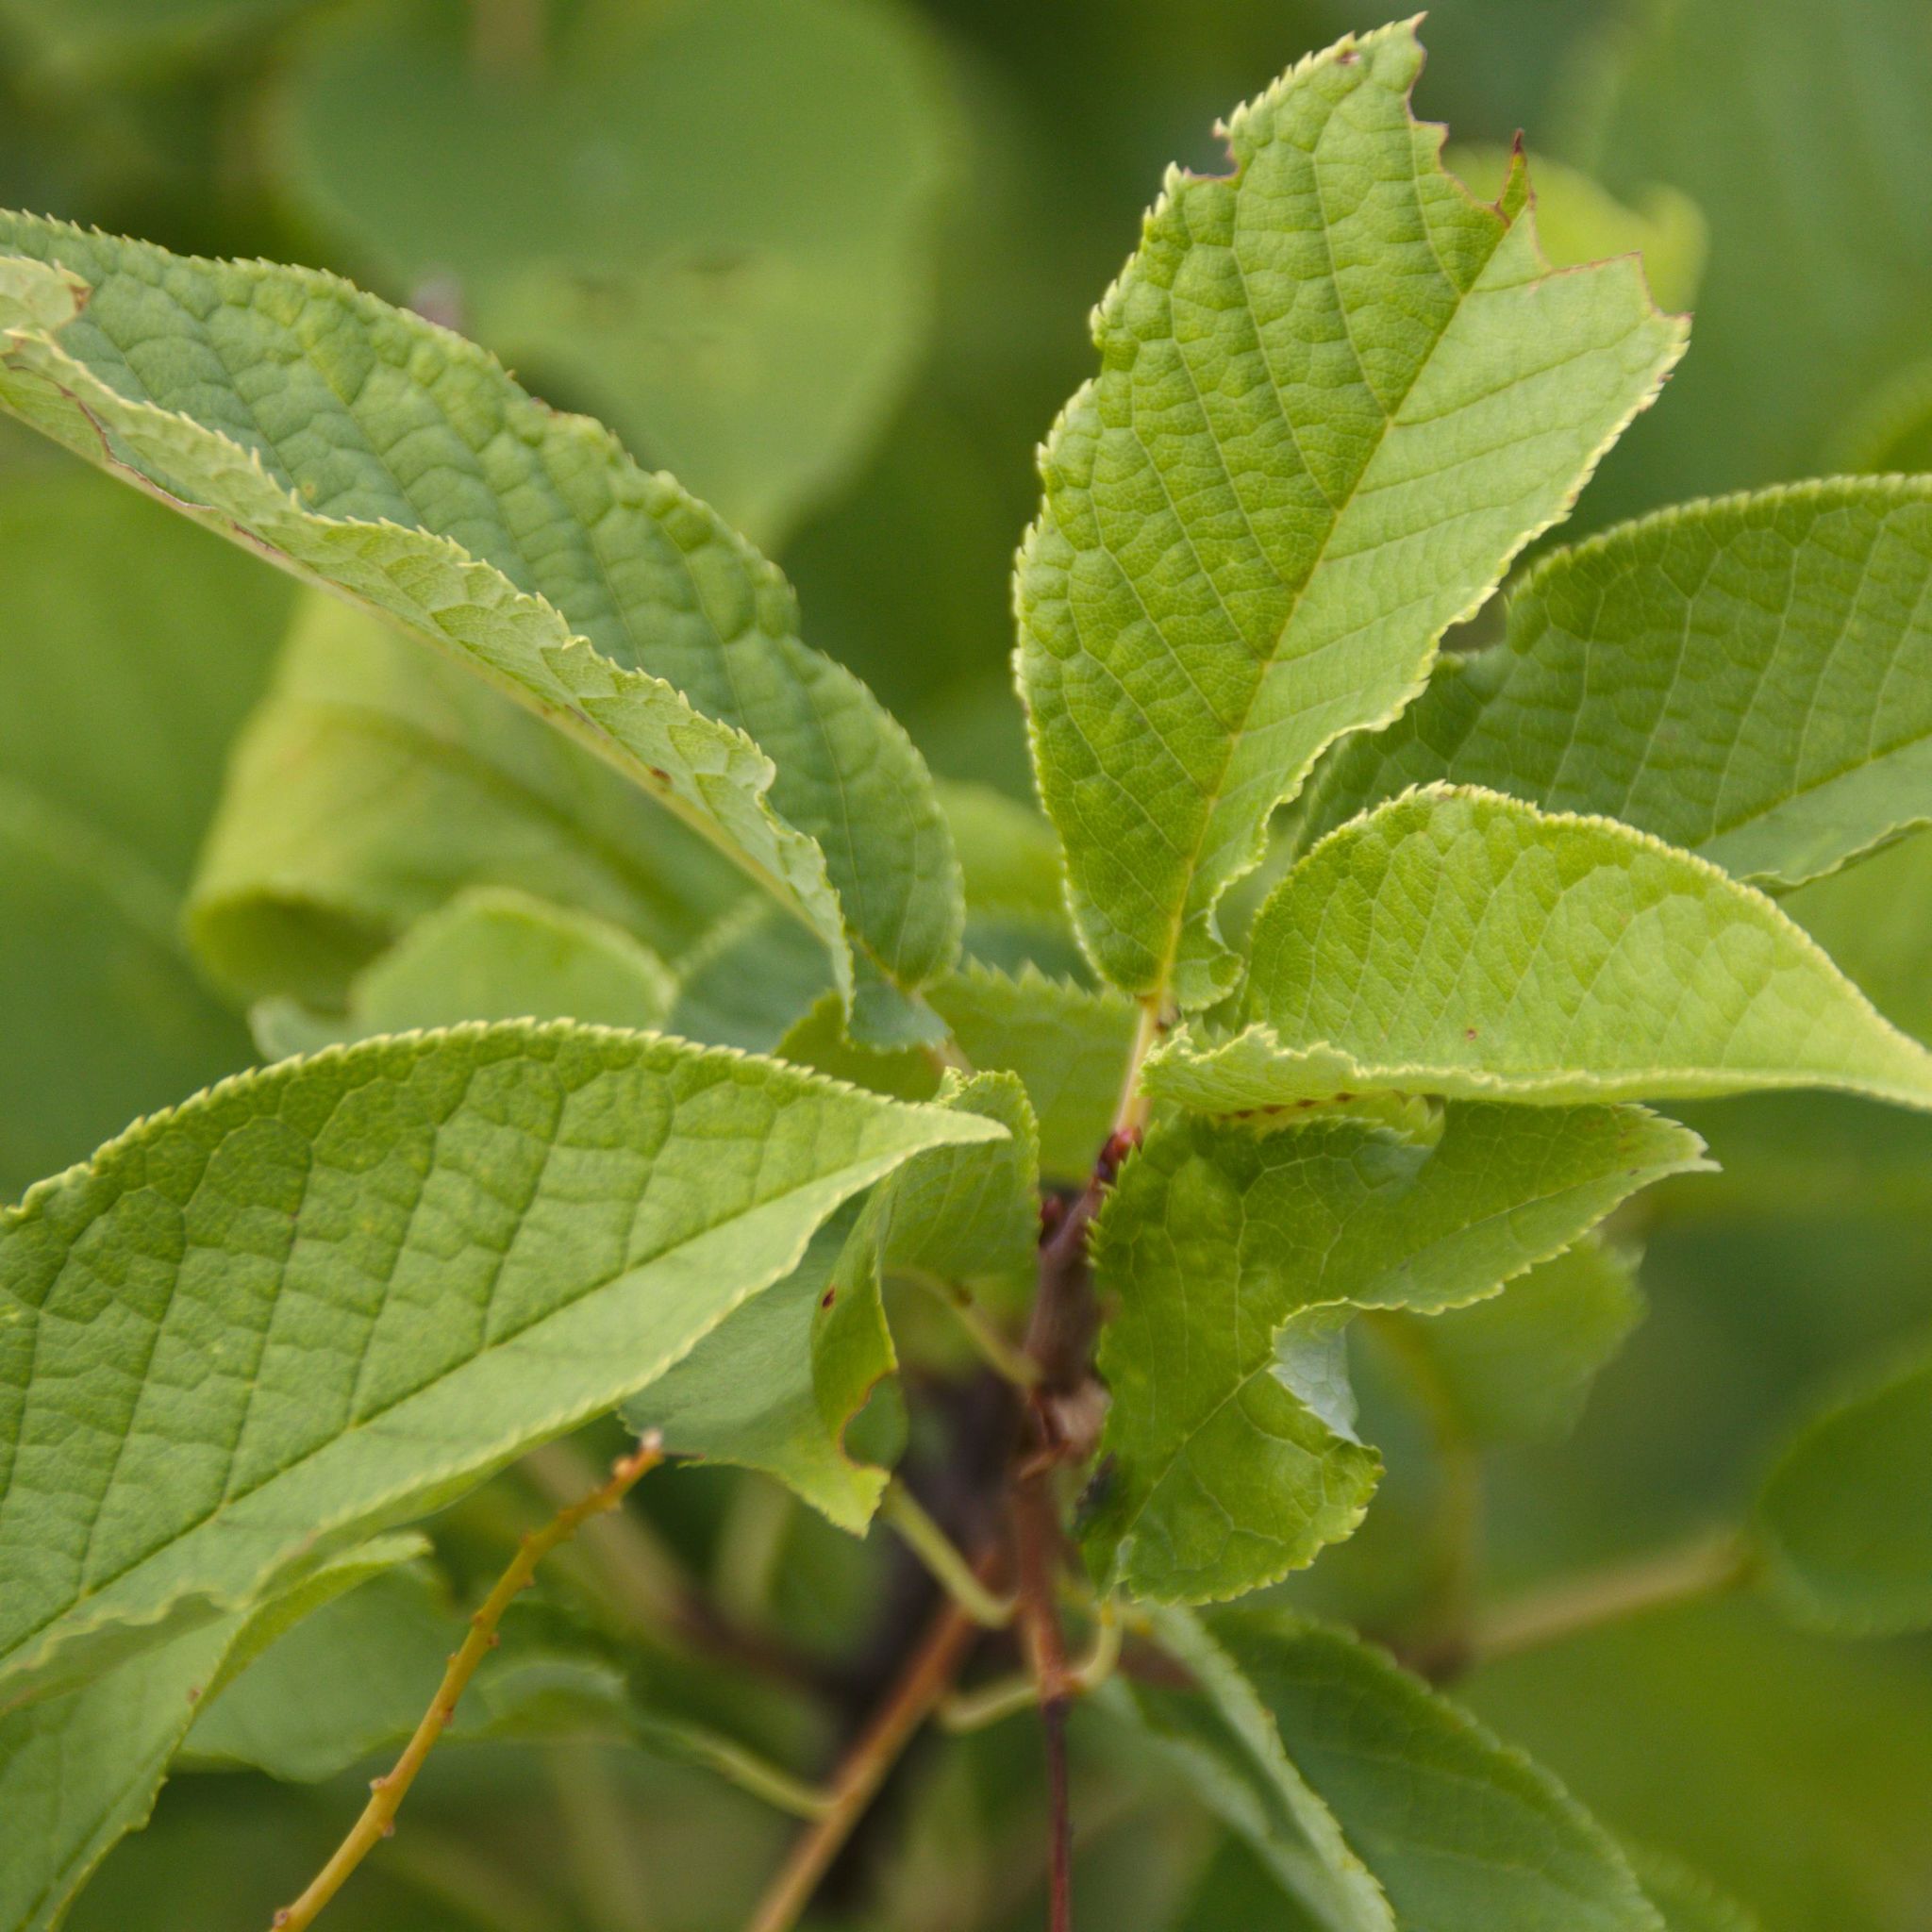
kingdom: Plantae
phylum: Tracheophyta
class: Magnoliopsida
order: Rosales
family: Rosaceae
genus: Prunus
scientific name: Prunus padus
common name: Bird cherry
